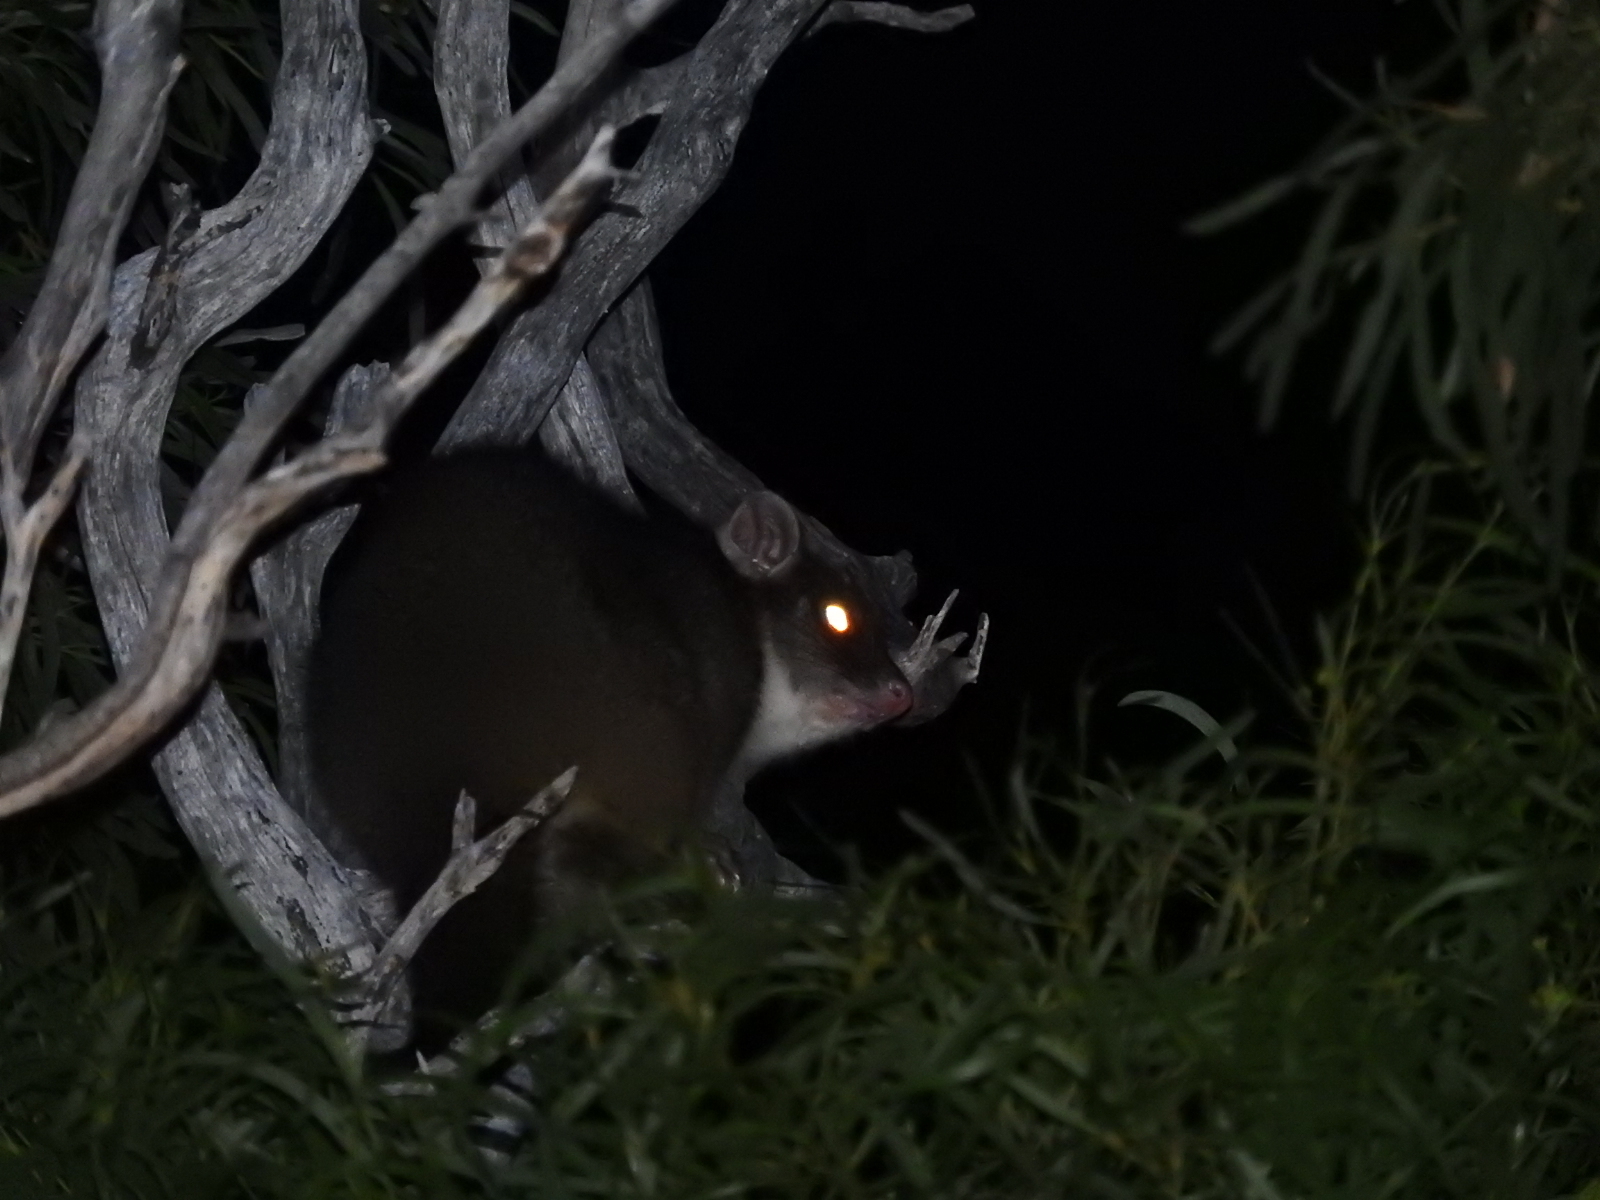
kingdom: Animalia
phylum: Chordata
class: Mammalia
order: Diprotodontia
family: Pseudocheiridae
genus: Pseudocheirus
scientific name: Pseudocheirus peregrinus
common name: Common ringtail possum
